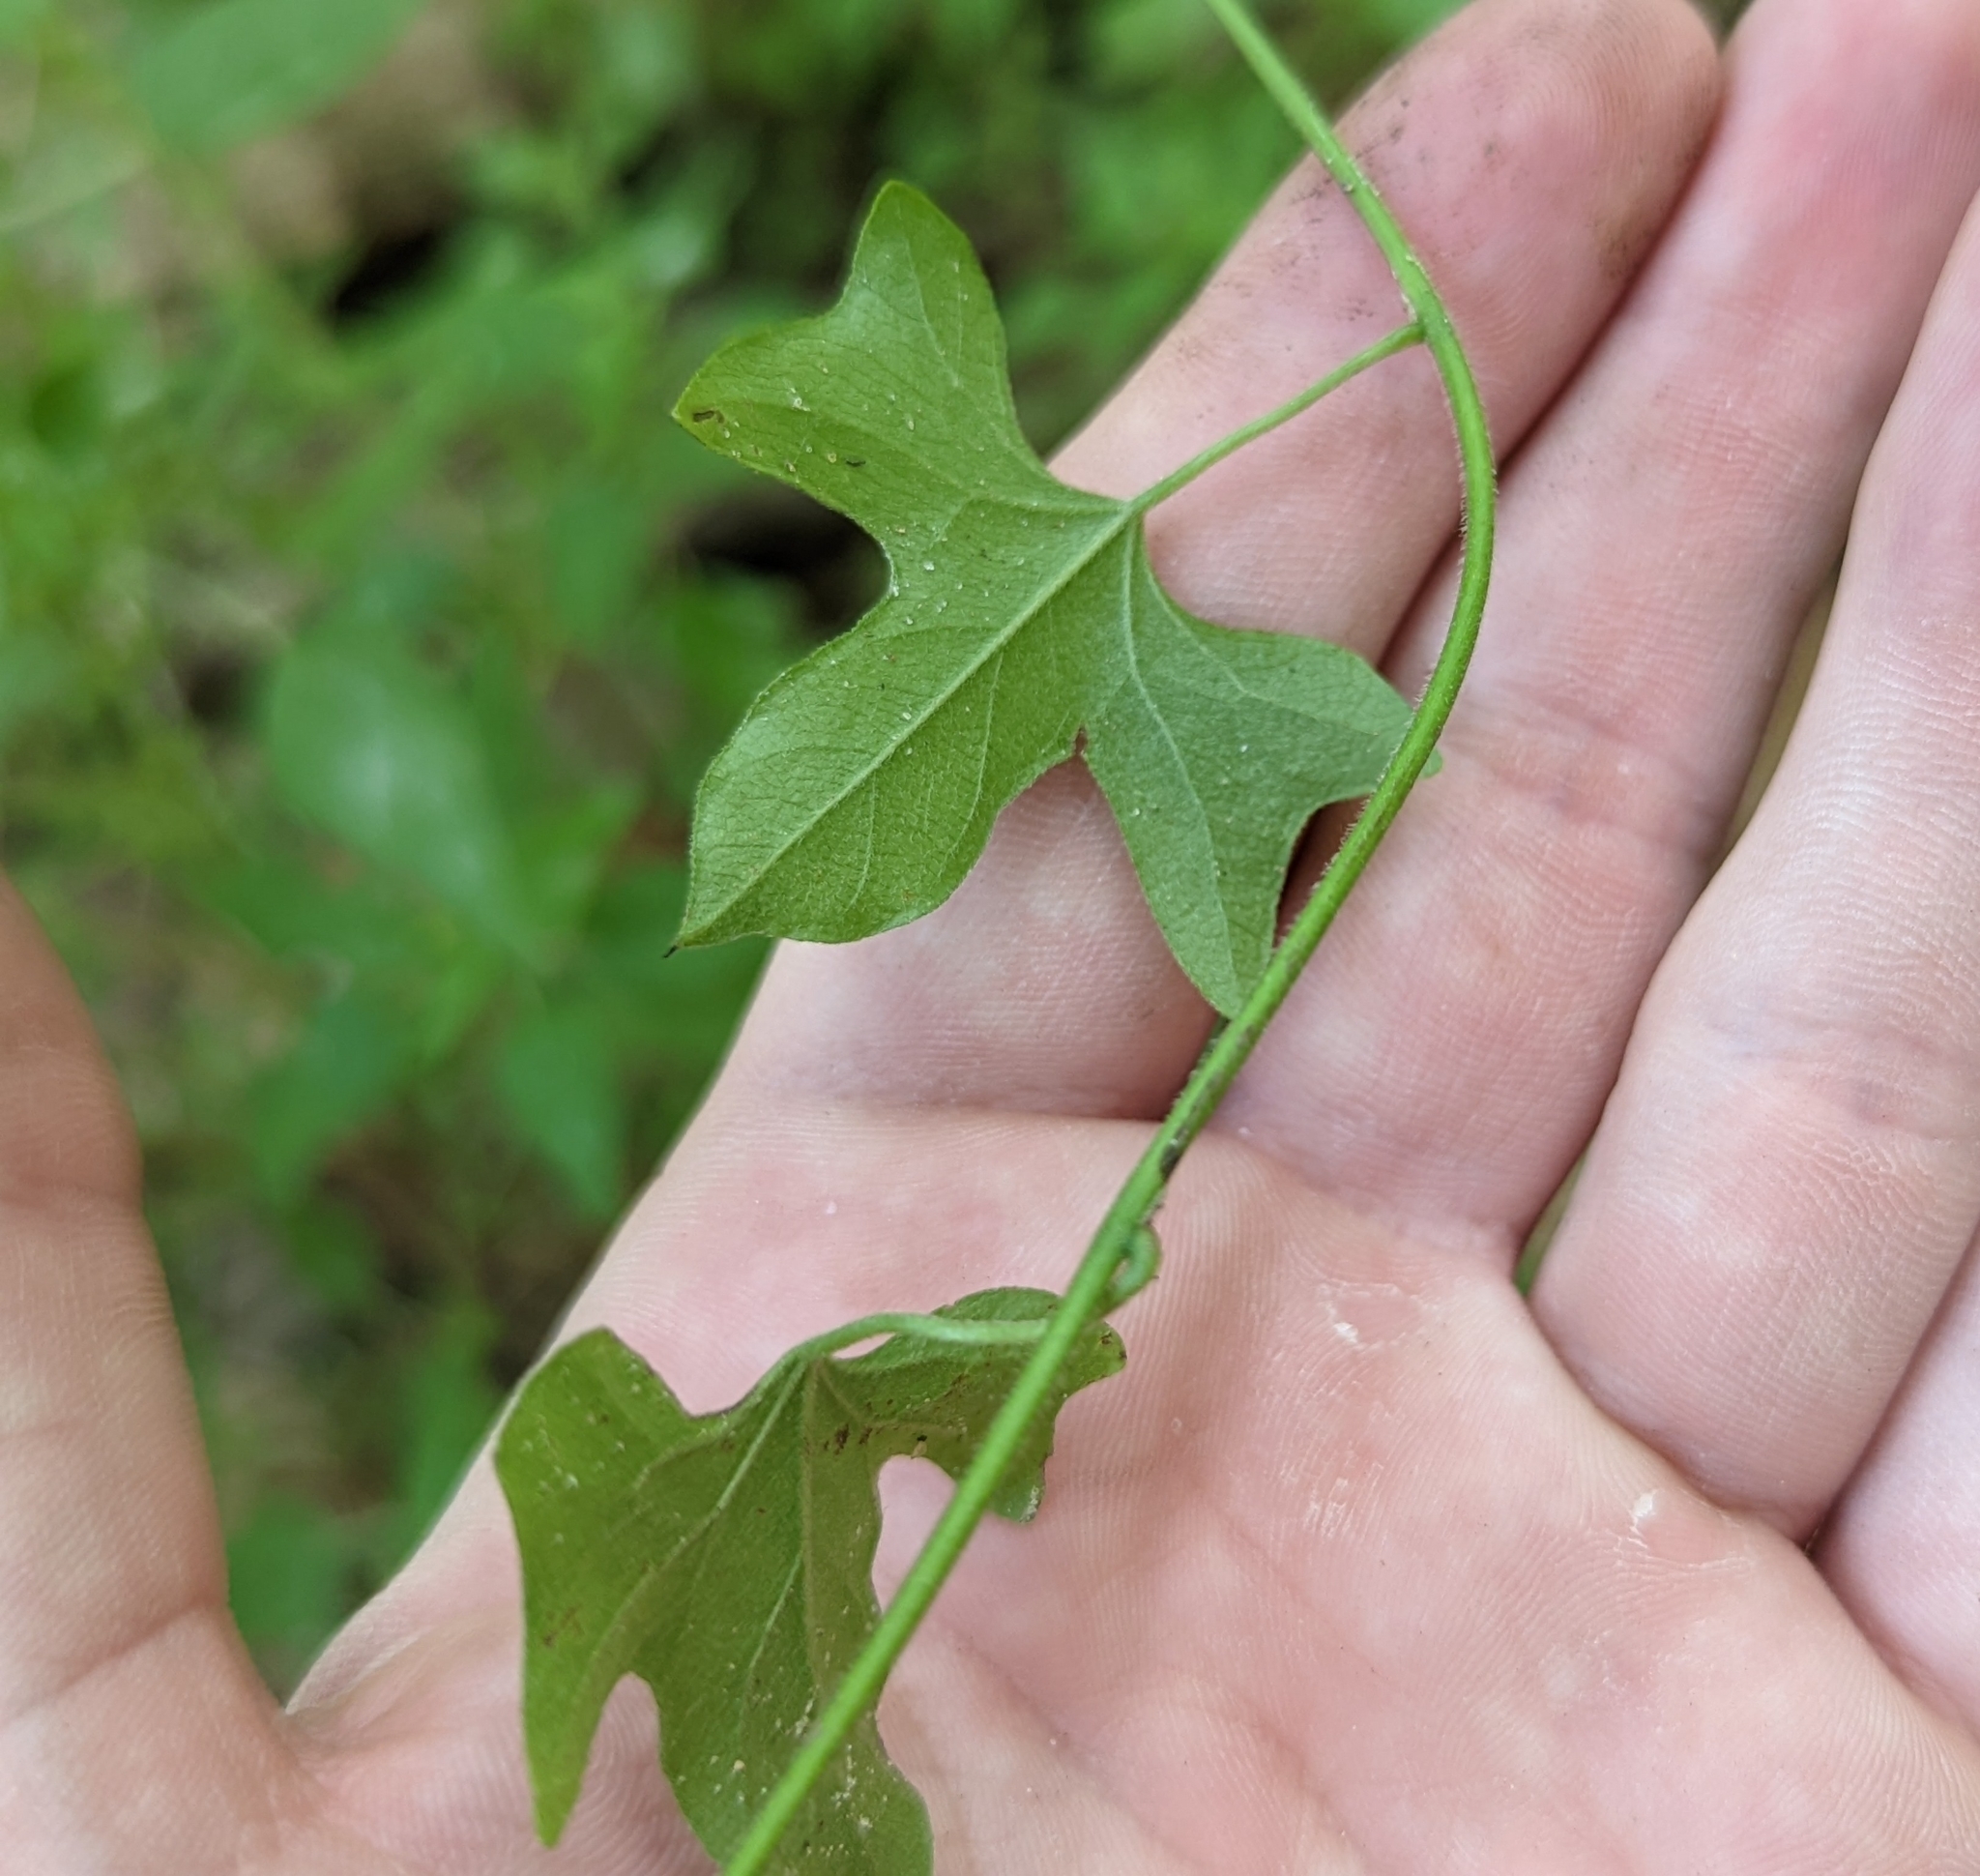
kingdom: Plantae
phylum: Tracheophyta
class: Magnoliopsida
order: Ranunculales
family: Menispermaceae
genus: Cocculus
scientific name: Cocculus carolinus
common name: Carolina moonseed
